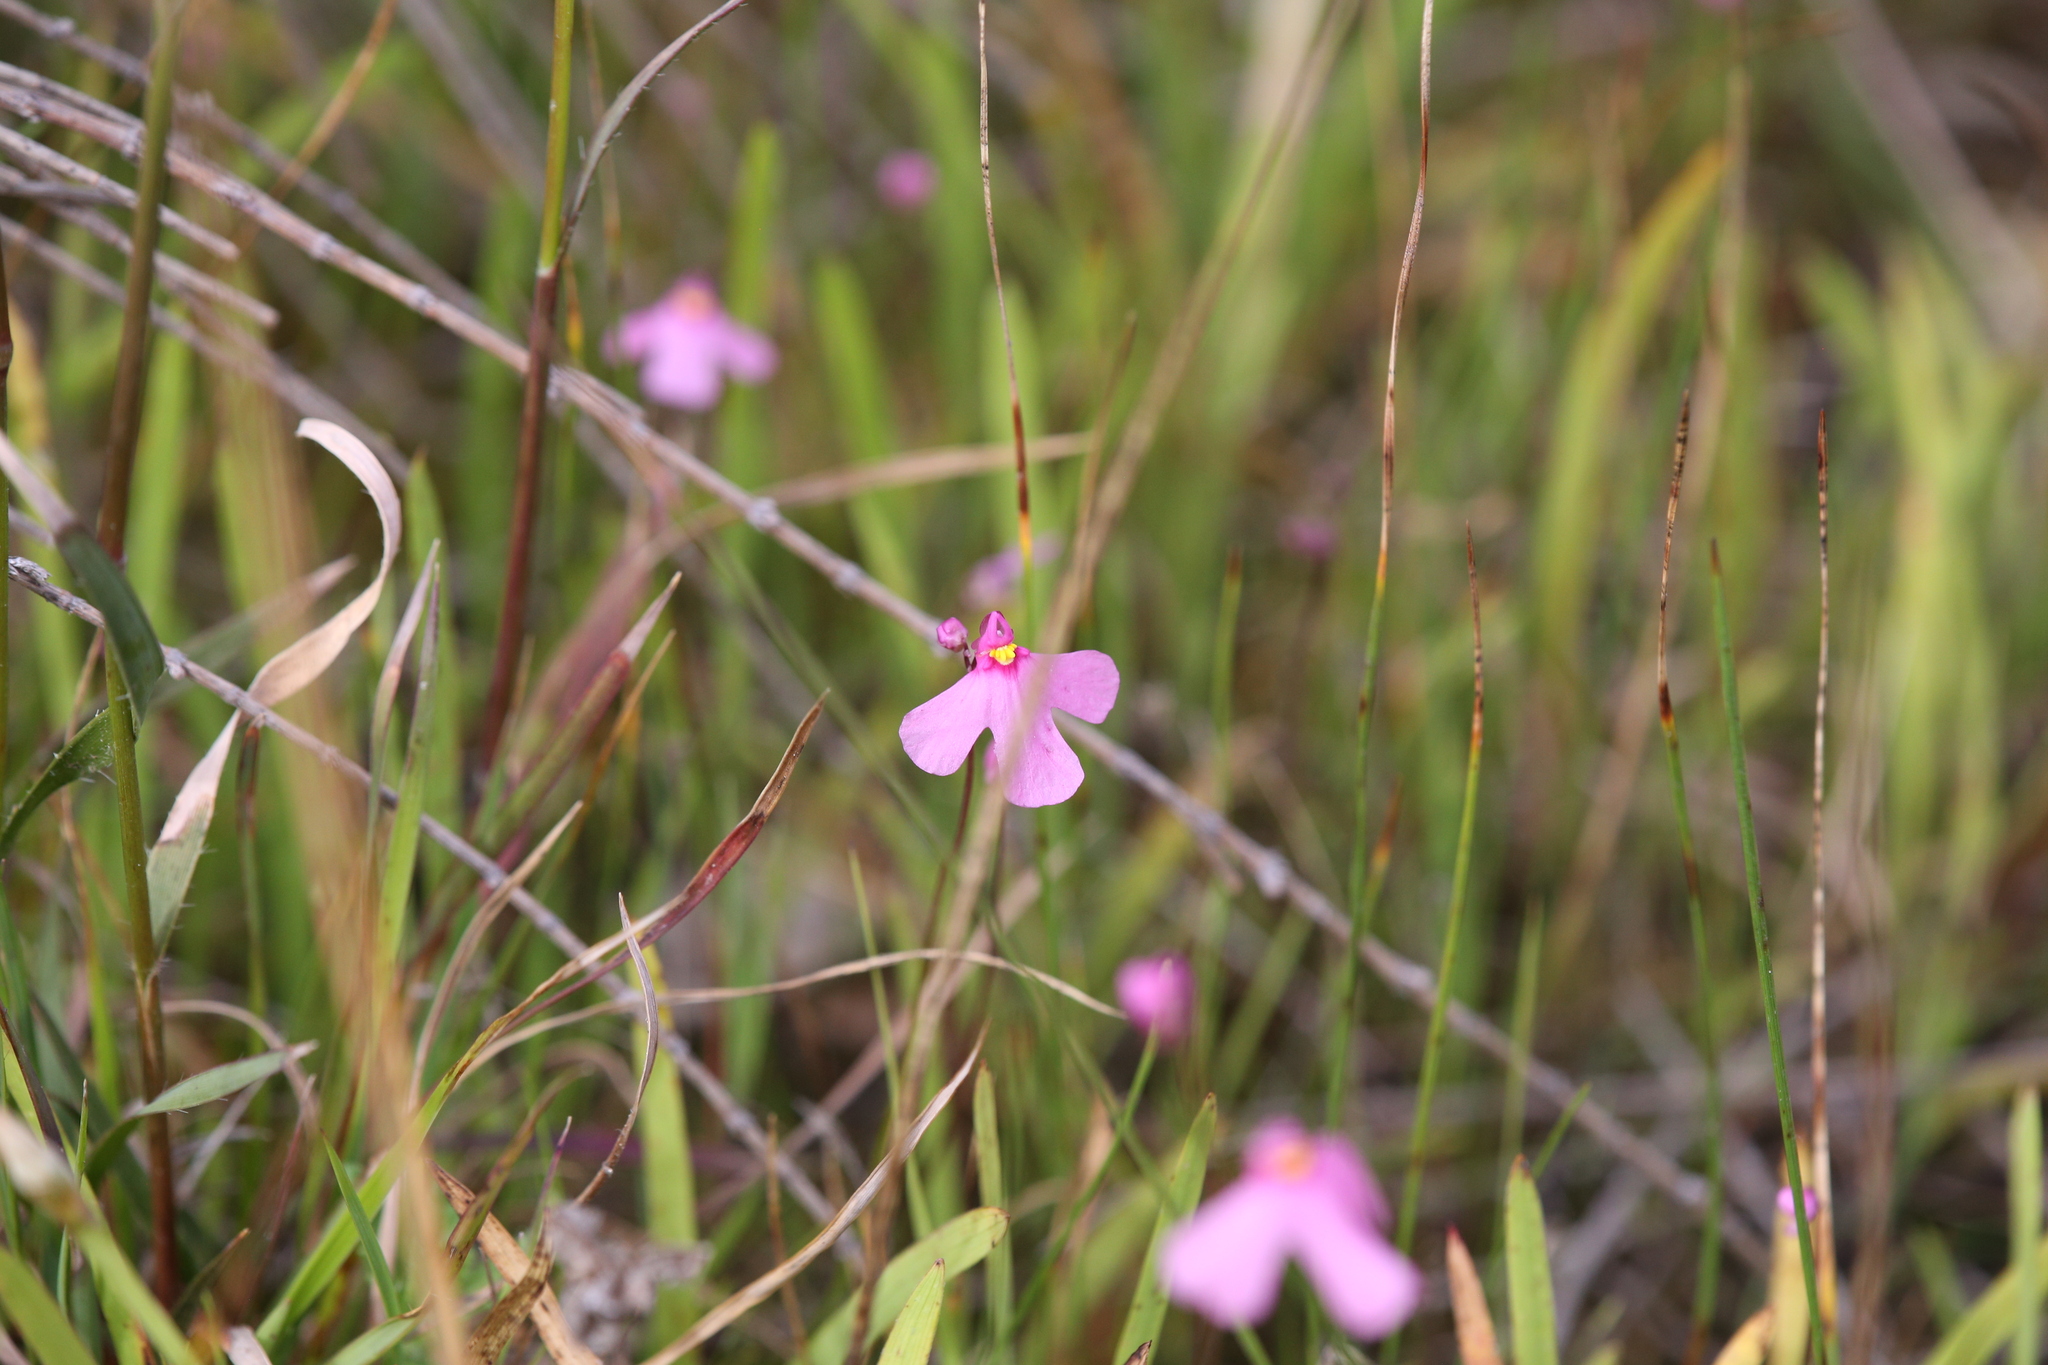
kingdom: Plantae
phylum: Tracheophyta
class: Magnoliopsida
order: Lamiales
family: Lentibulariaceae
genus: Utricularia
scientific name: Utricularia multifida
